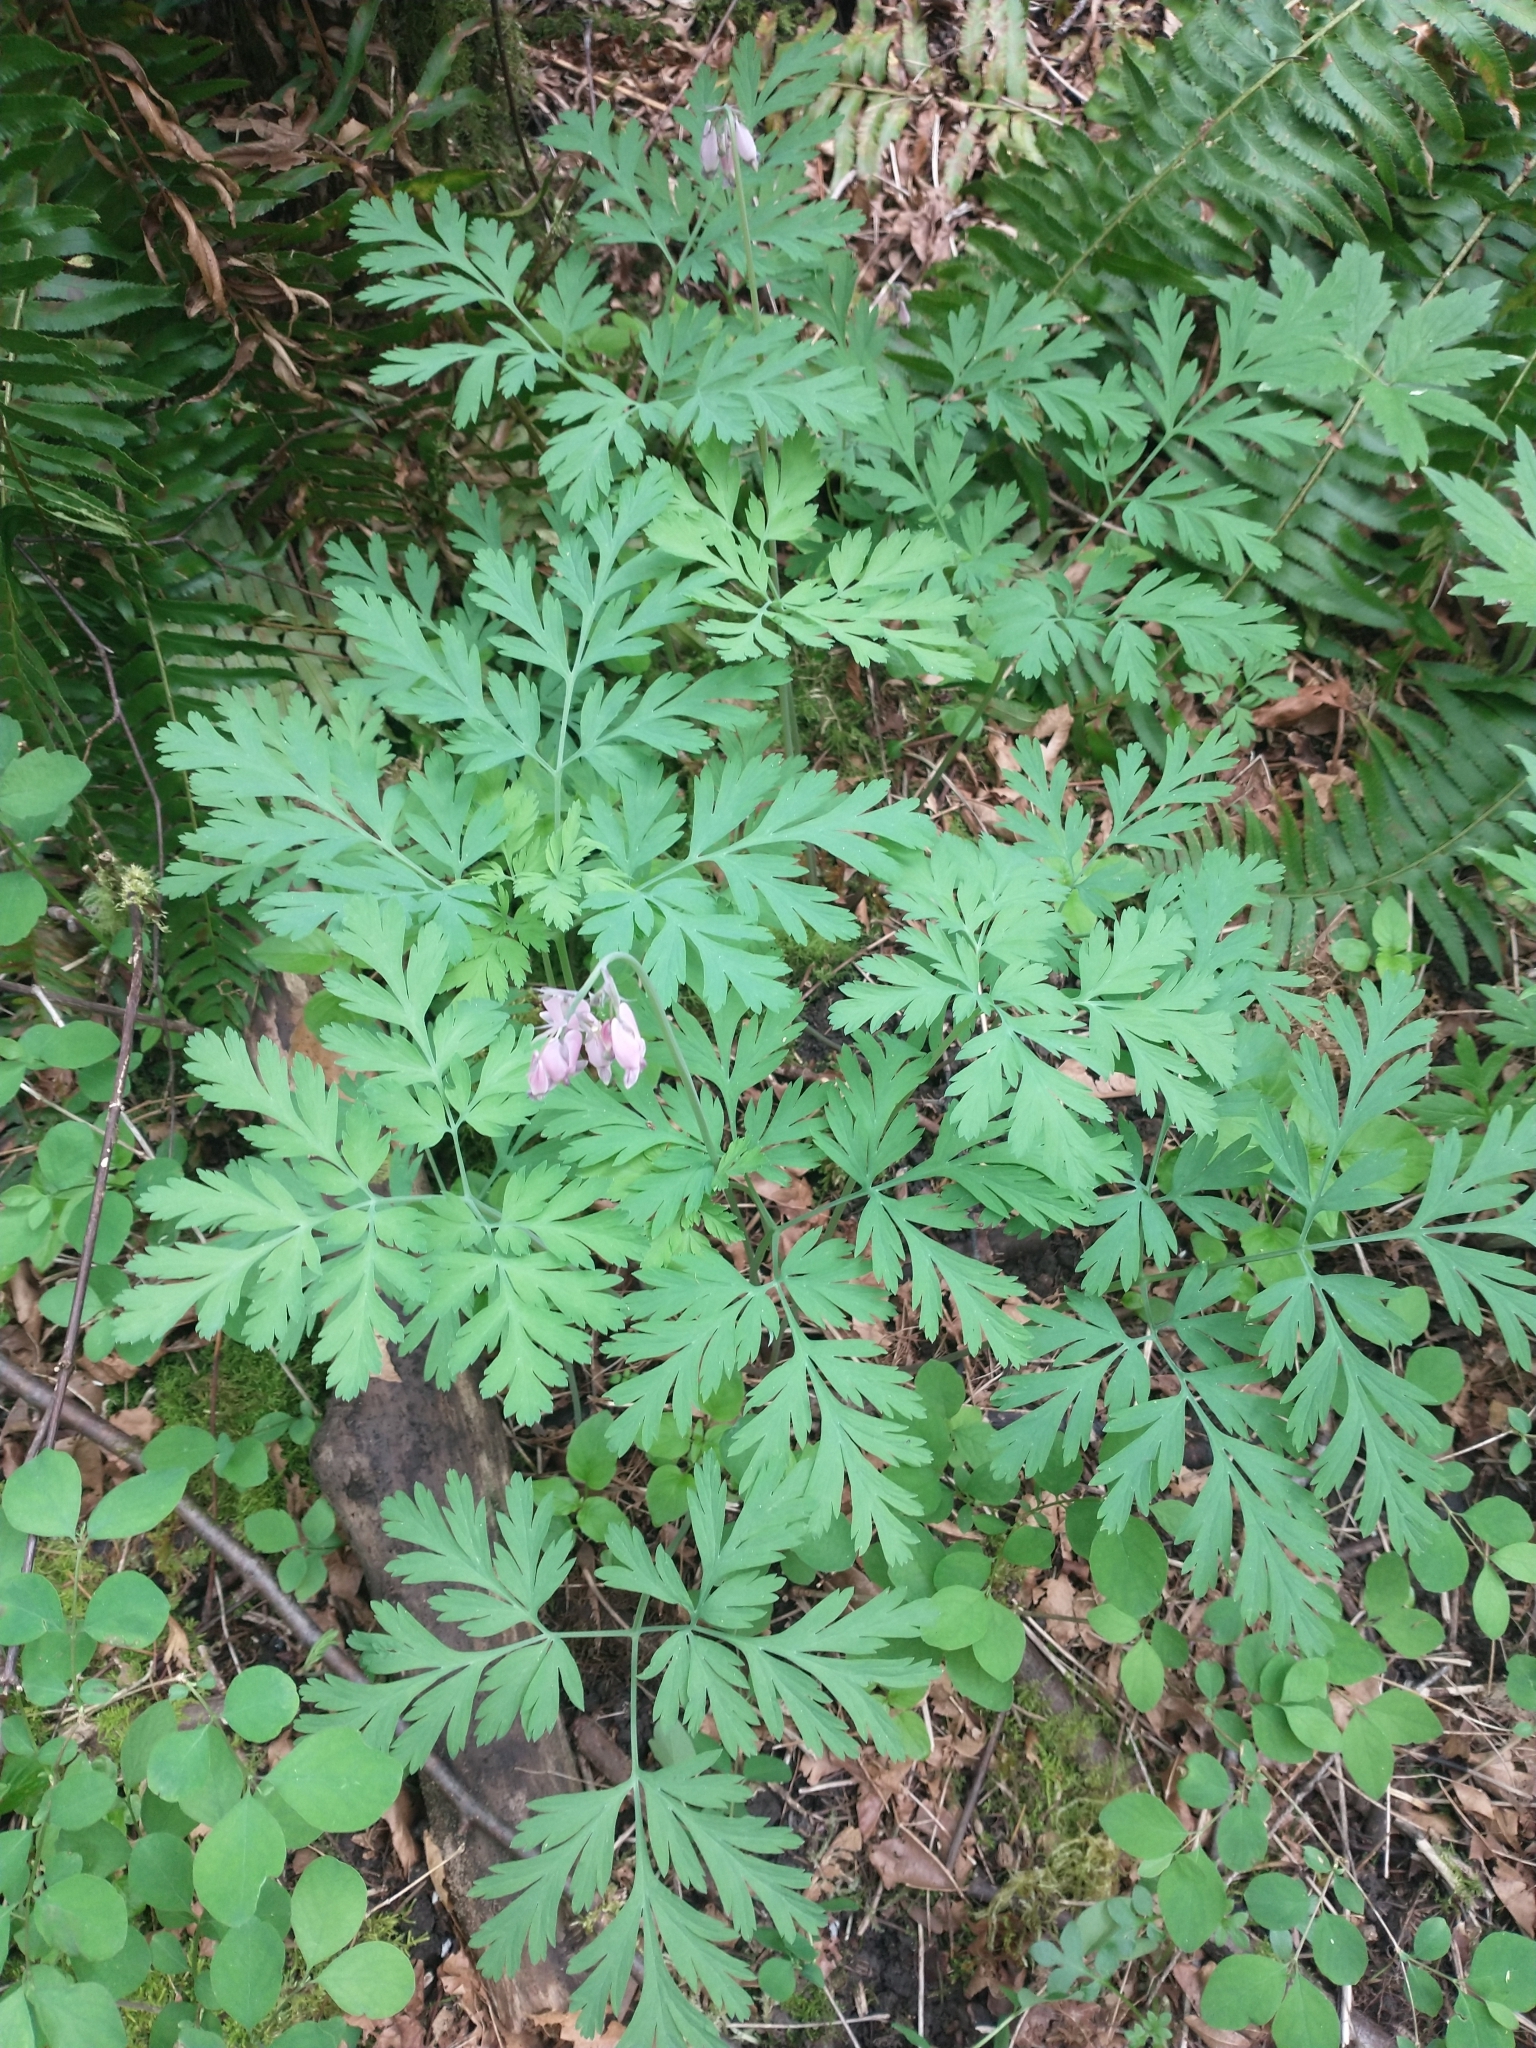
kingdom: Plantae
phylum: Tracheophyta
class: Magnoliopsida
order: Ranunculales
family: Papaveraceae
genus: Dicentra
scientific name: Dicentra formosa
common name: Bleeding-heart
